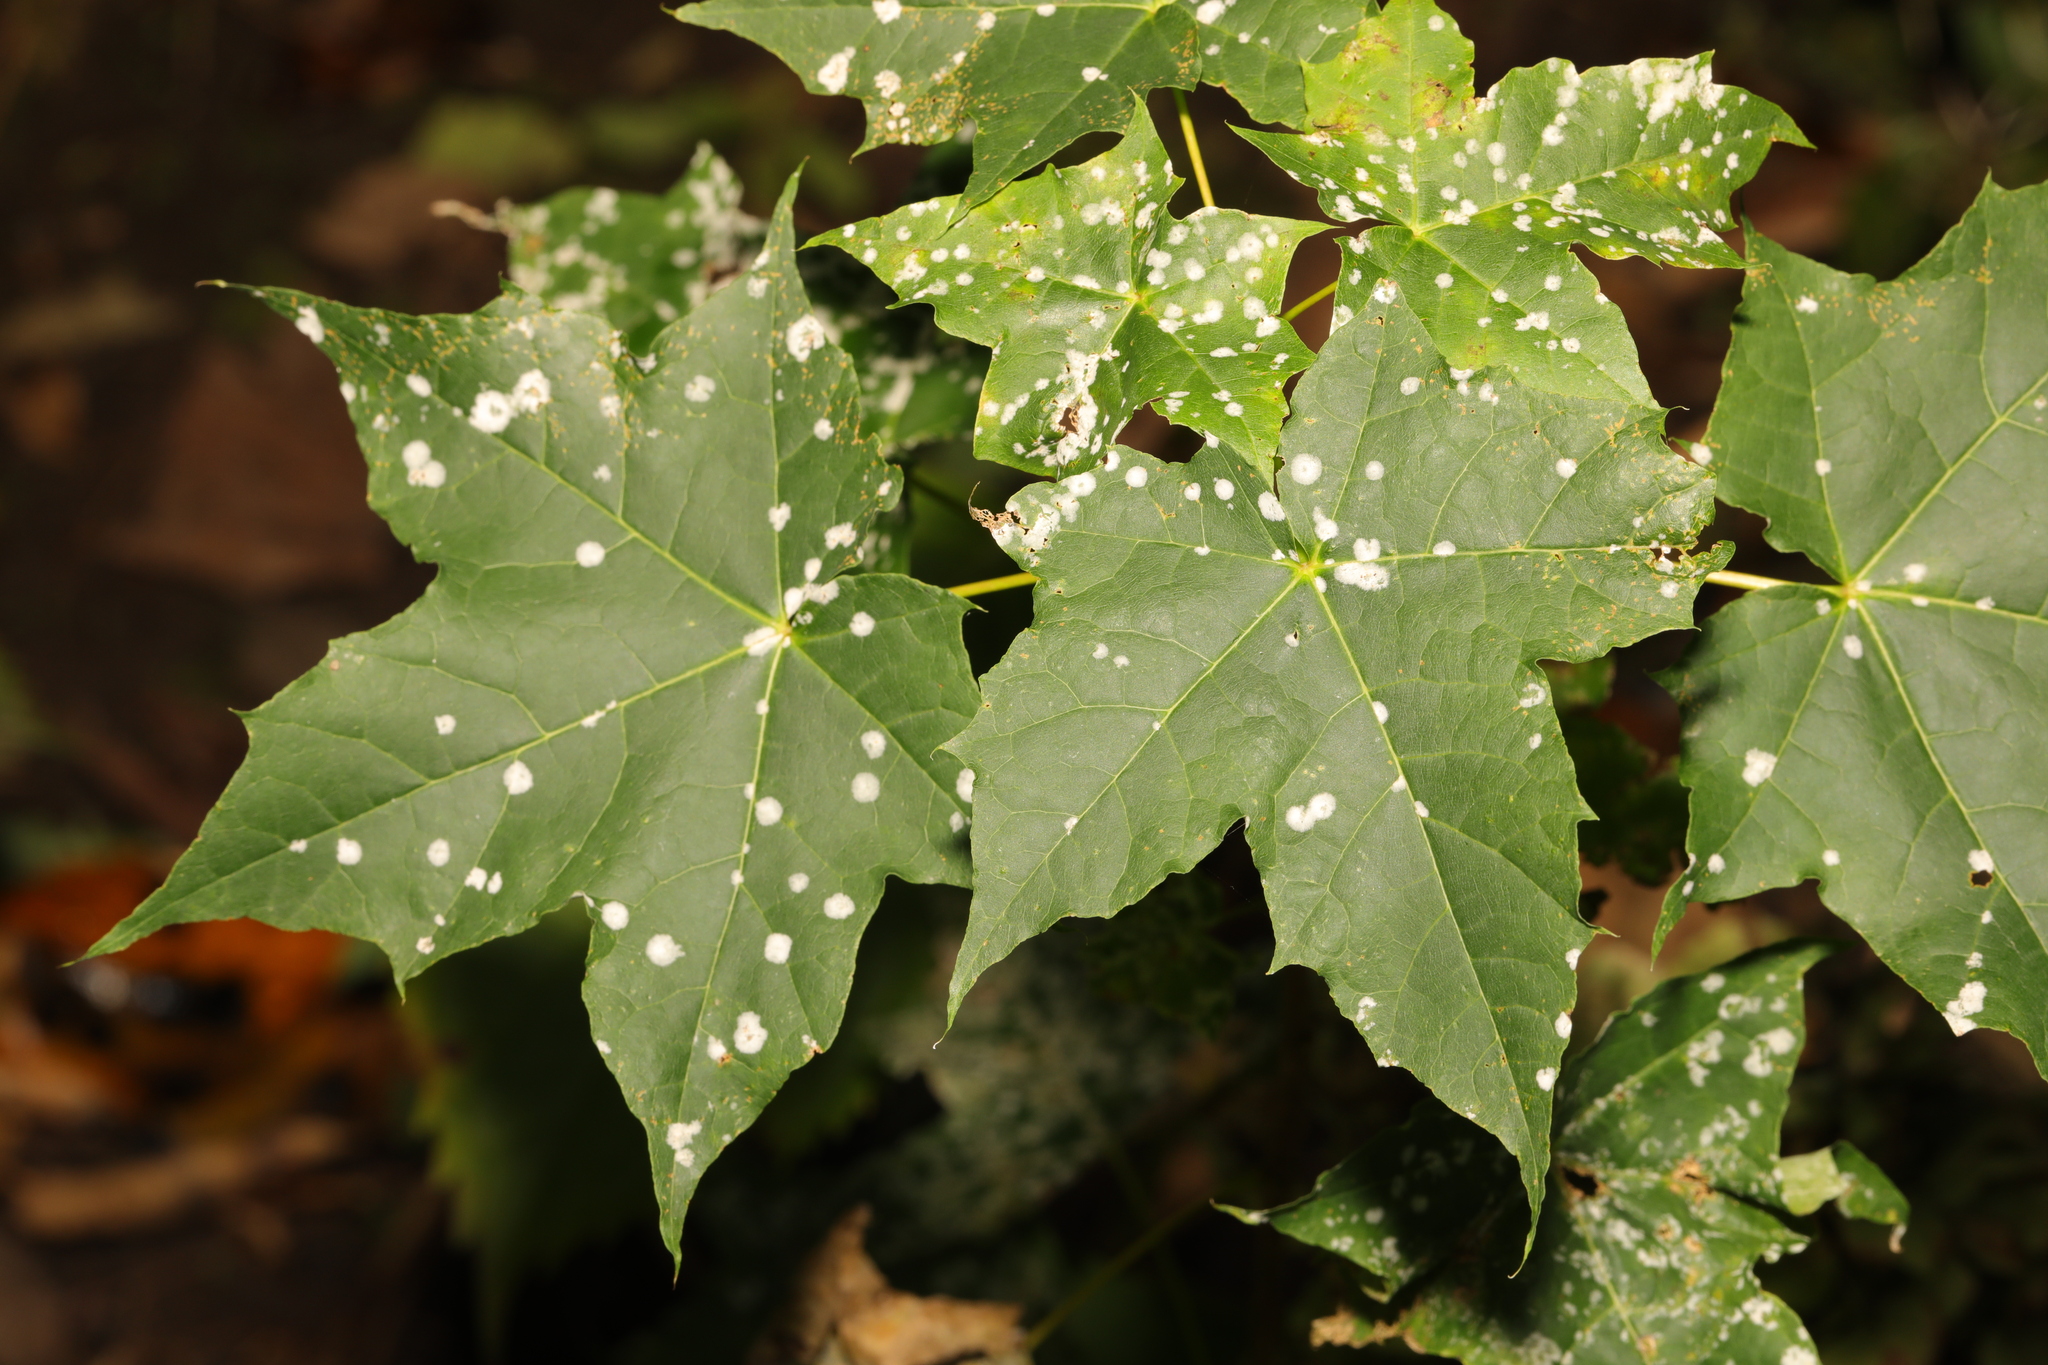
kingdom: Plantae
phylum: Tracheophyta
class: Magnoliopsida
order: Sapindales
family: Sapindaceae
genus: Acer
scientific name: Acer platanoides
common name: Norway maple
